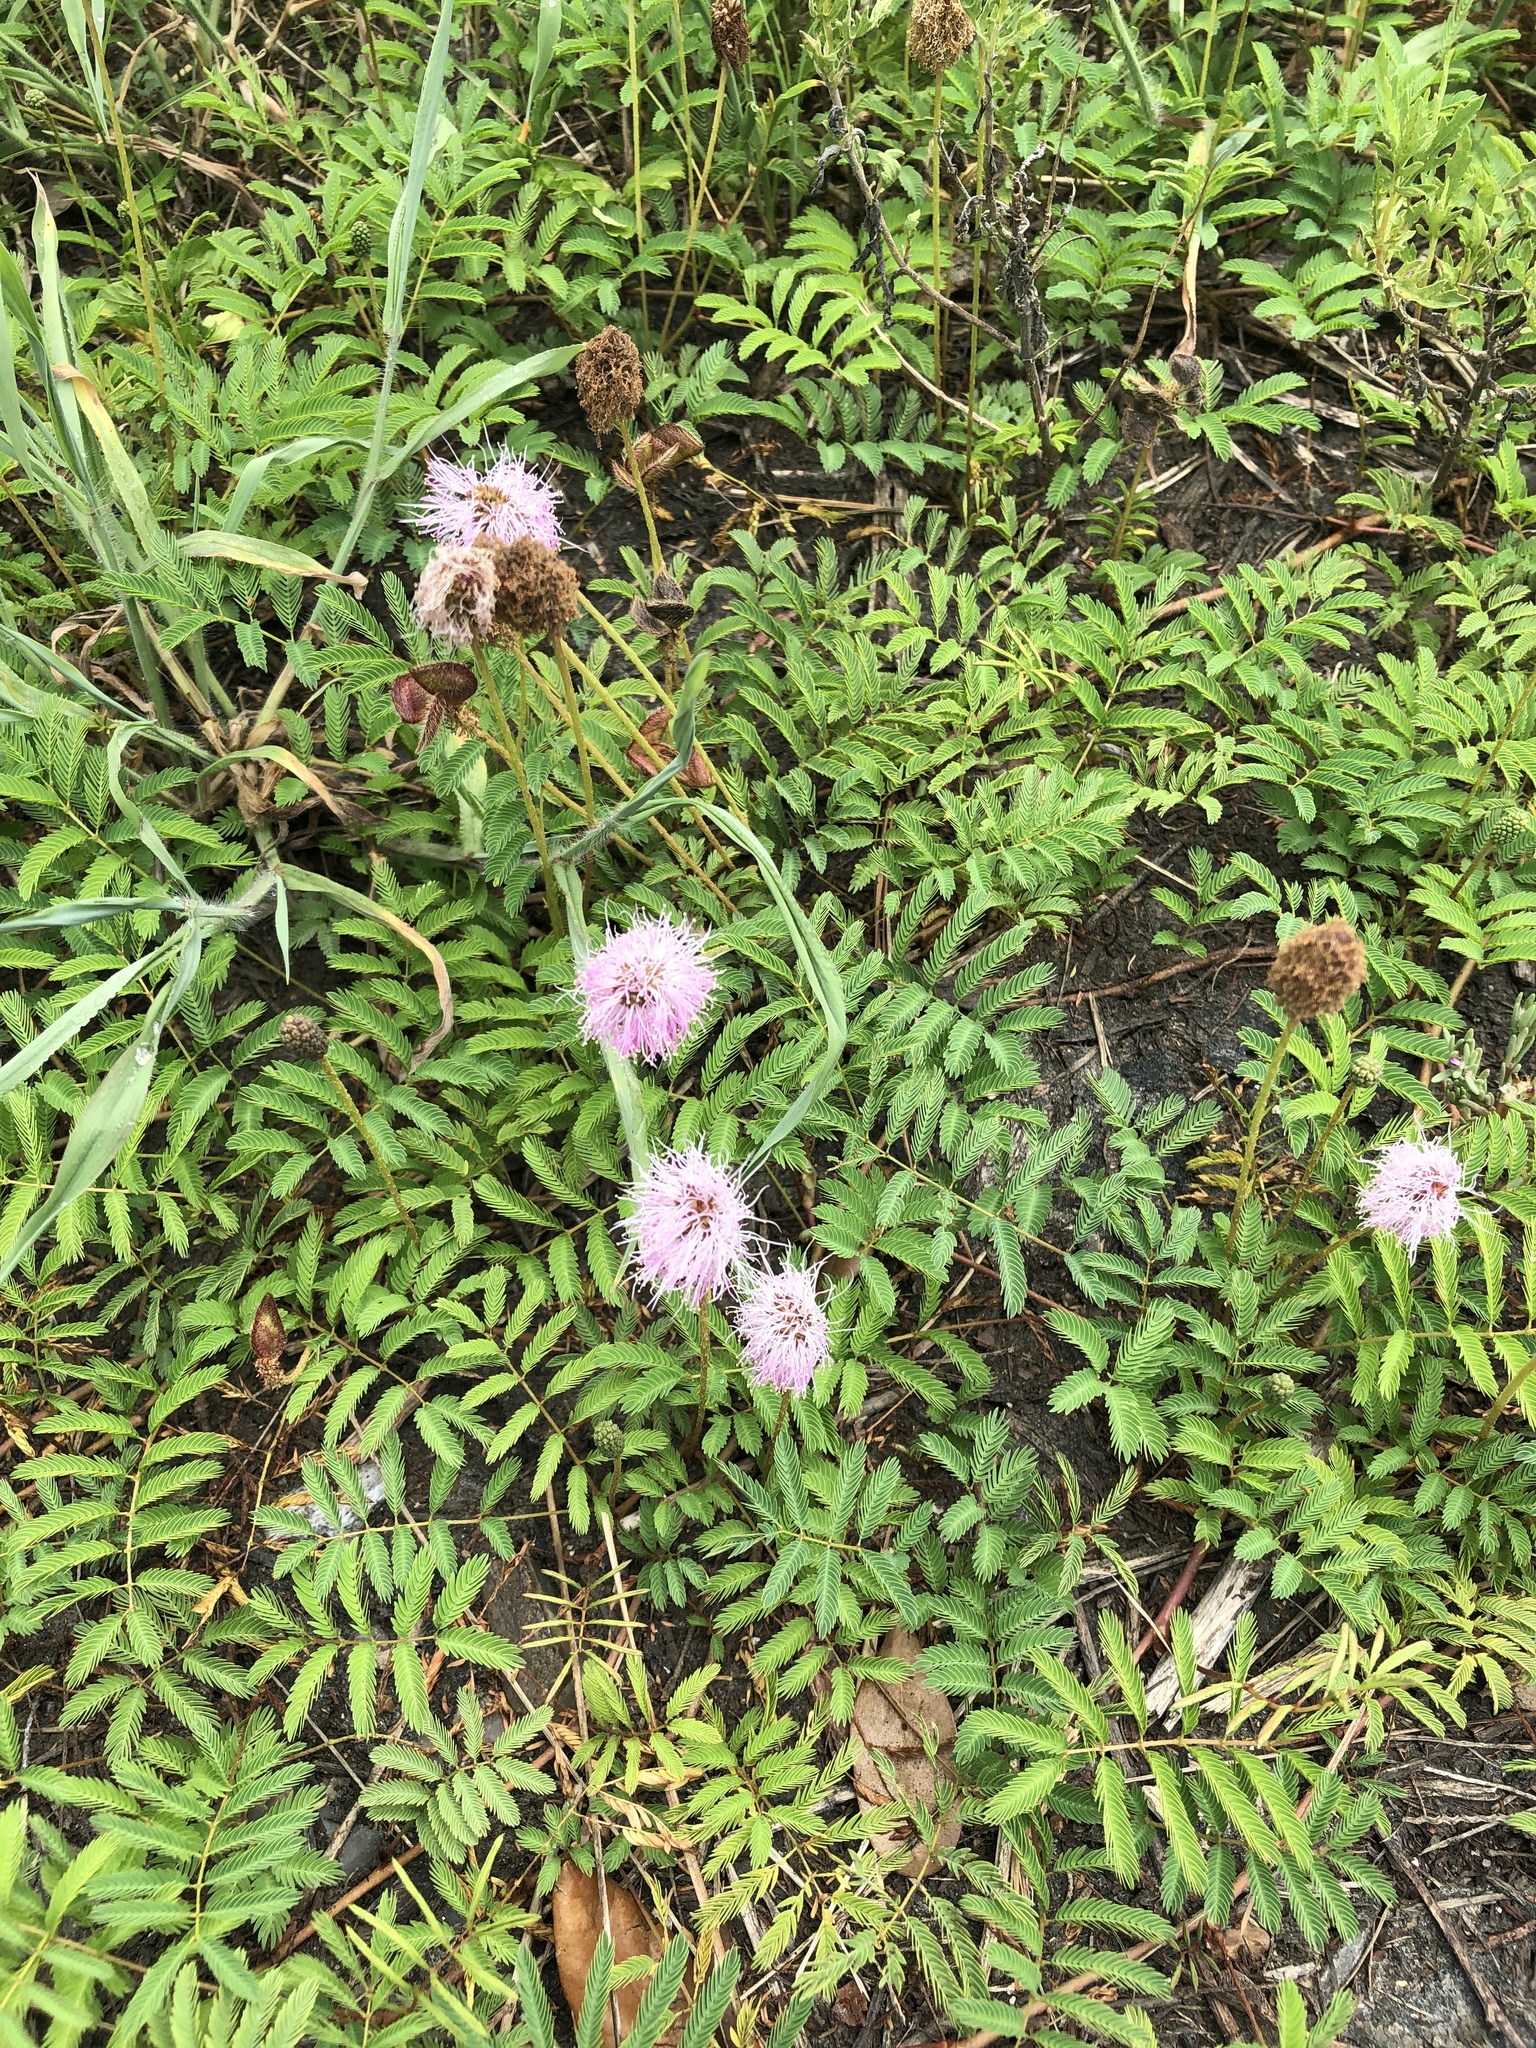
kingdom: Plantae
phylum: Tracheophyta
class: Magnoliopsida
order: Fabales
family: Fabaceae
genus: Mimosa
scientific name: Mimosa strigillosa
